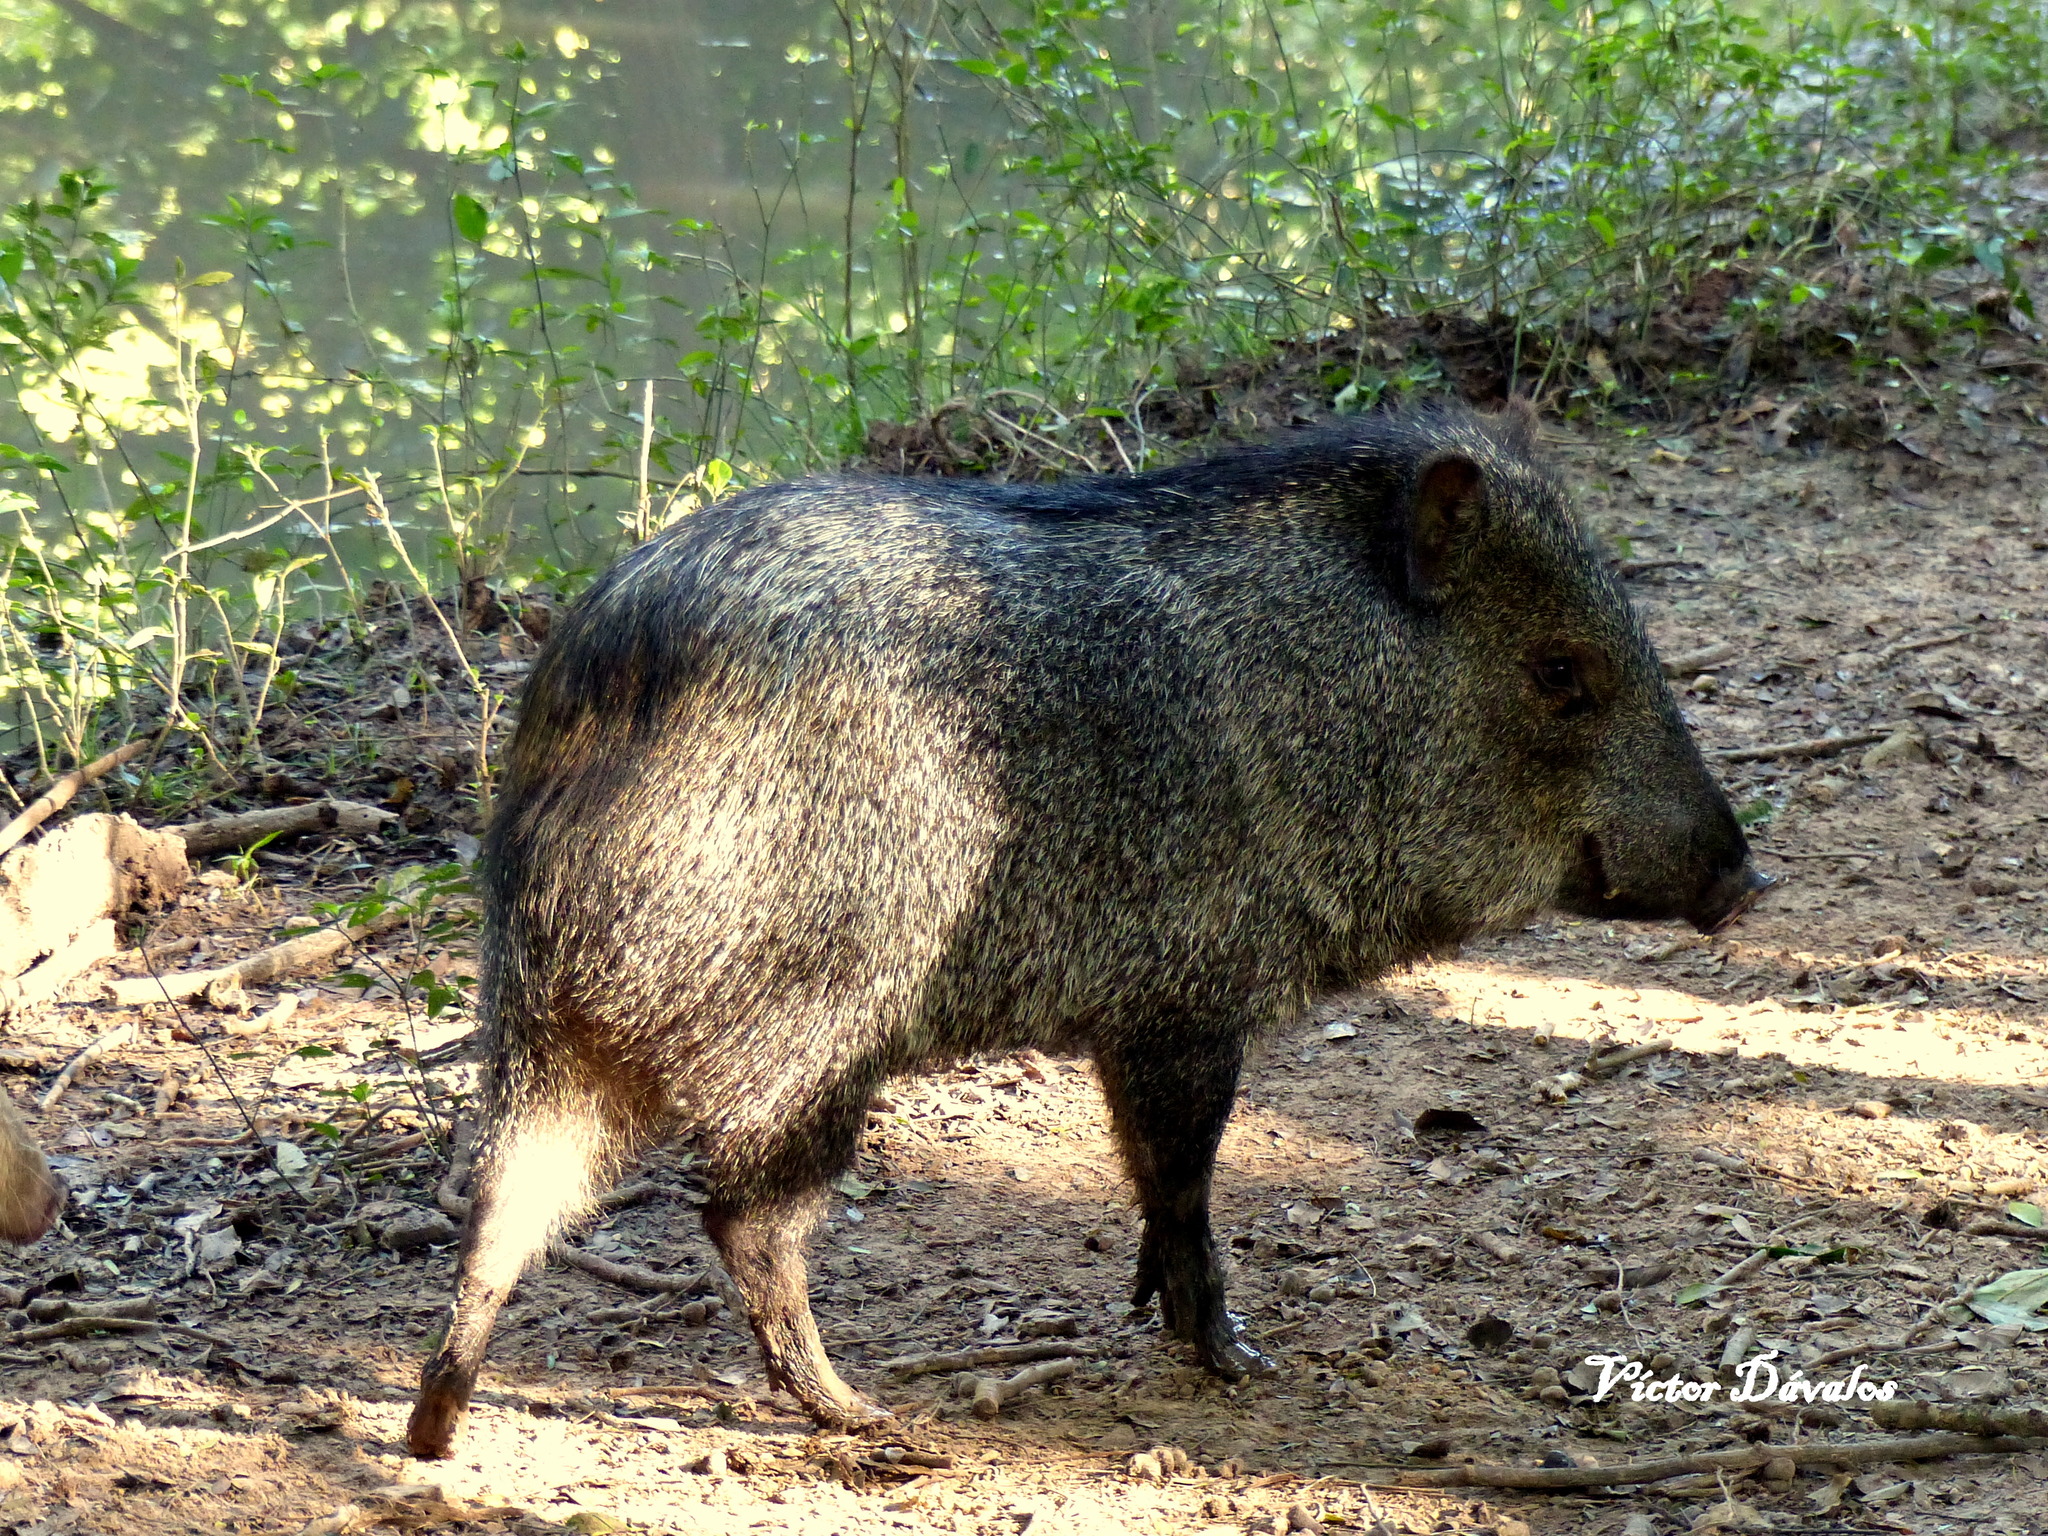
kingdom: Animalia
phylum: Chordata
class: Mammalia
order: Artiodactyla
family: Tayassuidae
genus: Pecari
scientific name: Pecari tajacu
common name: Collared peccary
